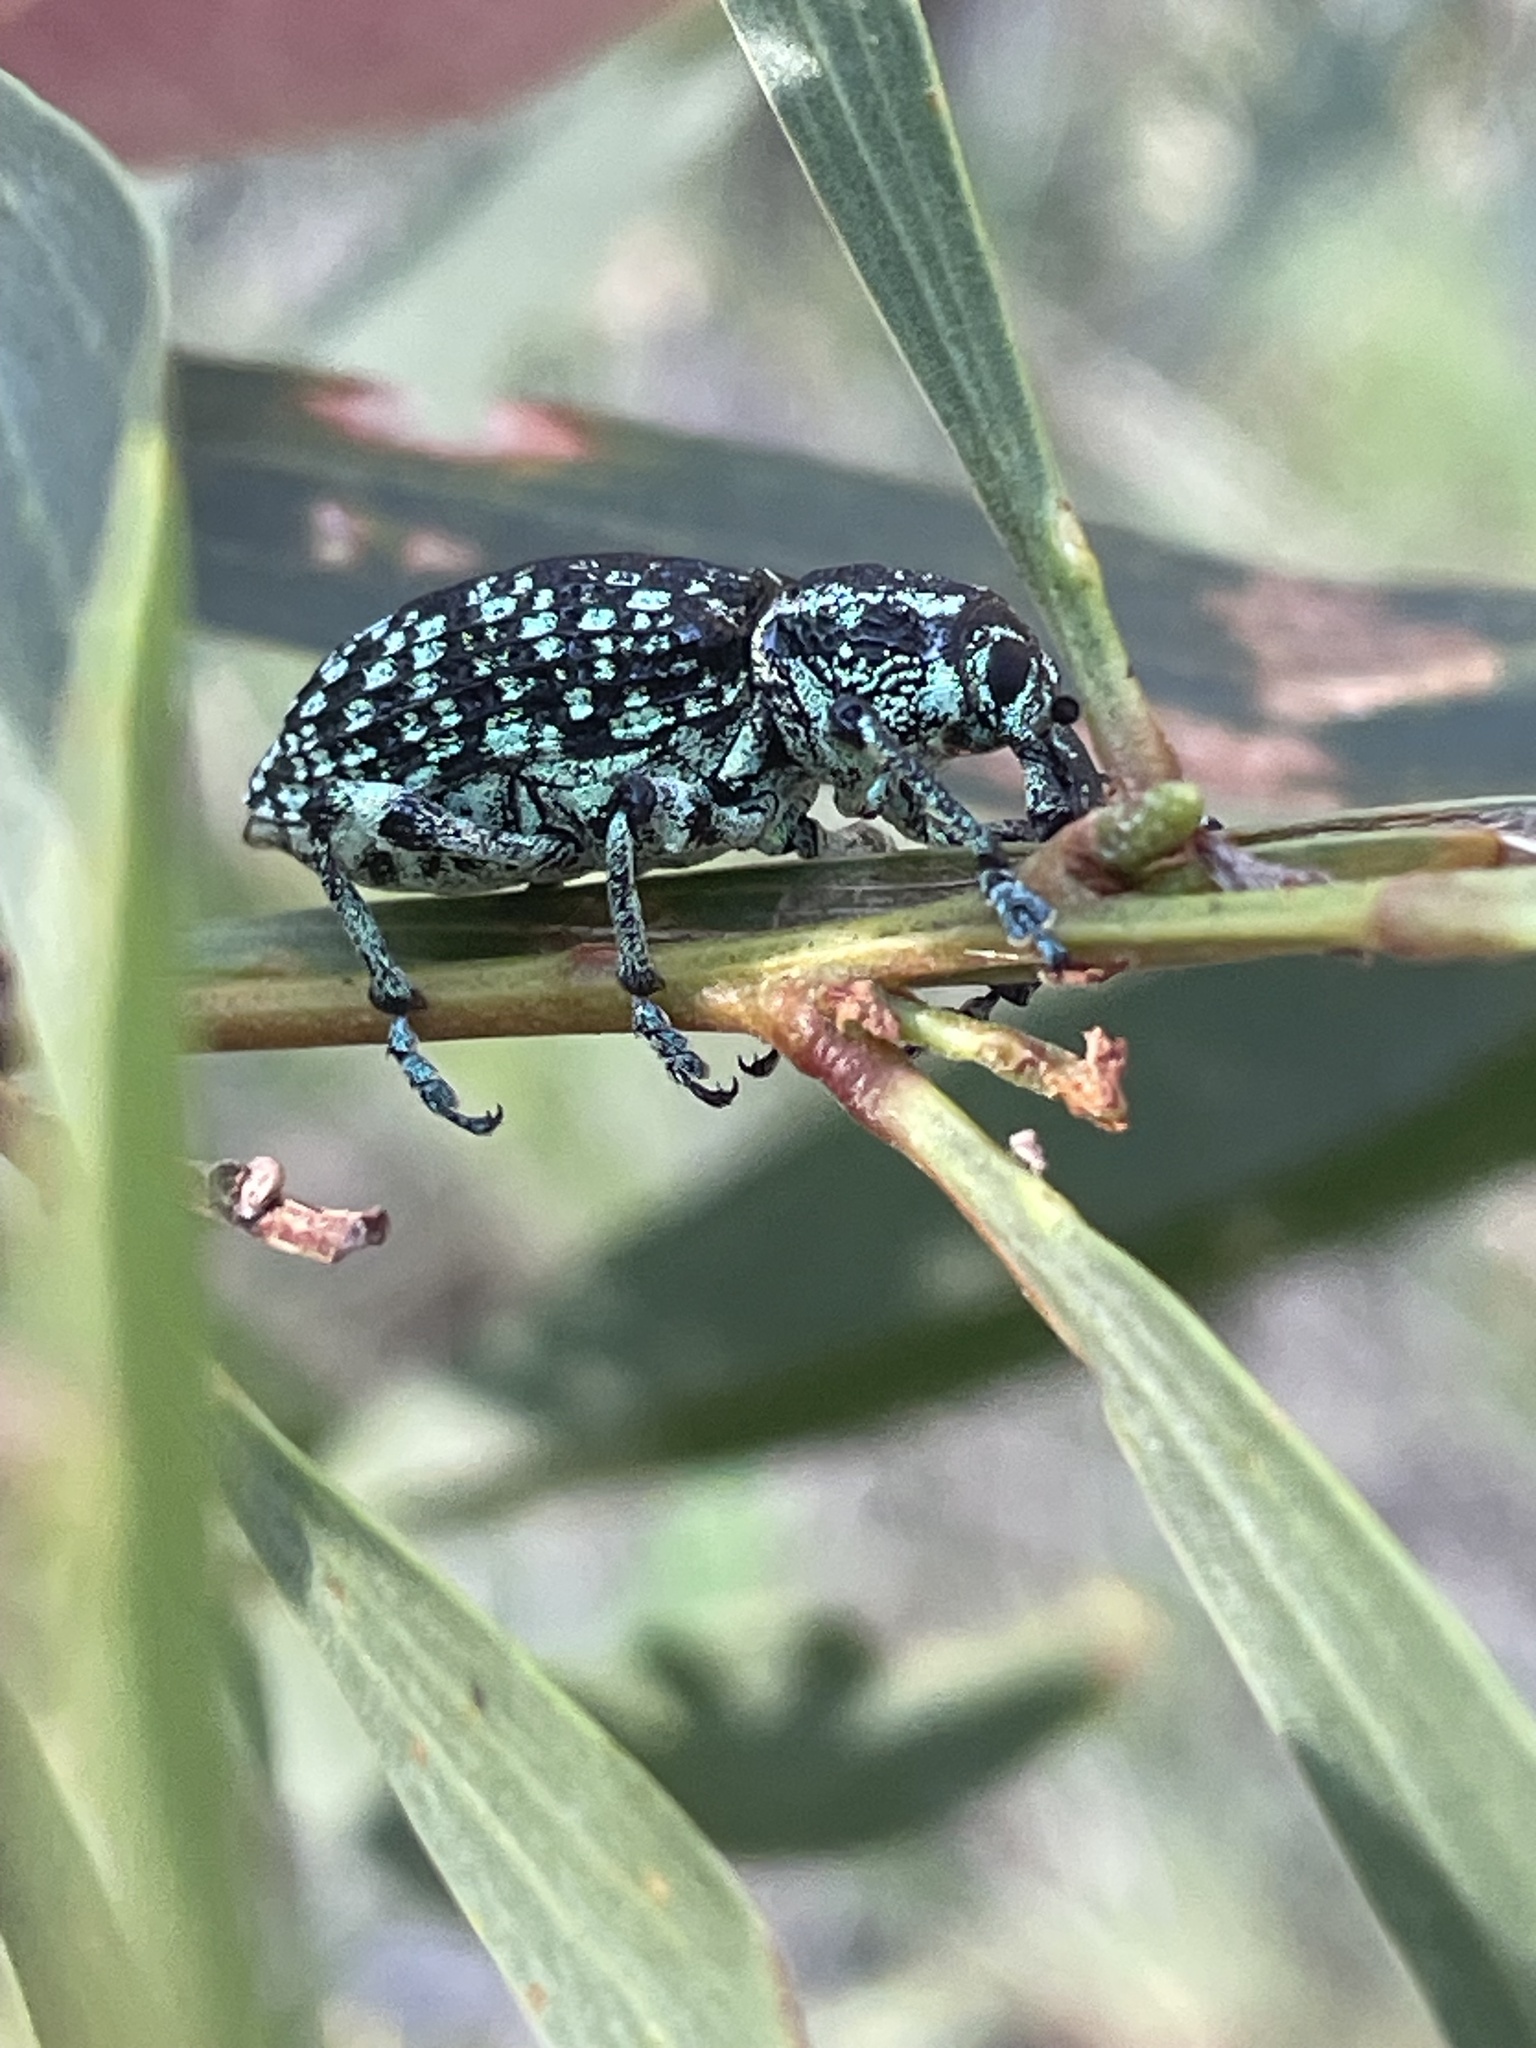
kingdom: Animalia
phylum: Arthropoda
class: Insecta
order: Coleoptera
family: Curculionidae
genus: Chrysolopus
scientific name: Chrysolopus spectabilis
